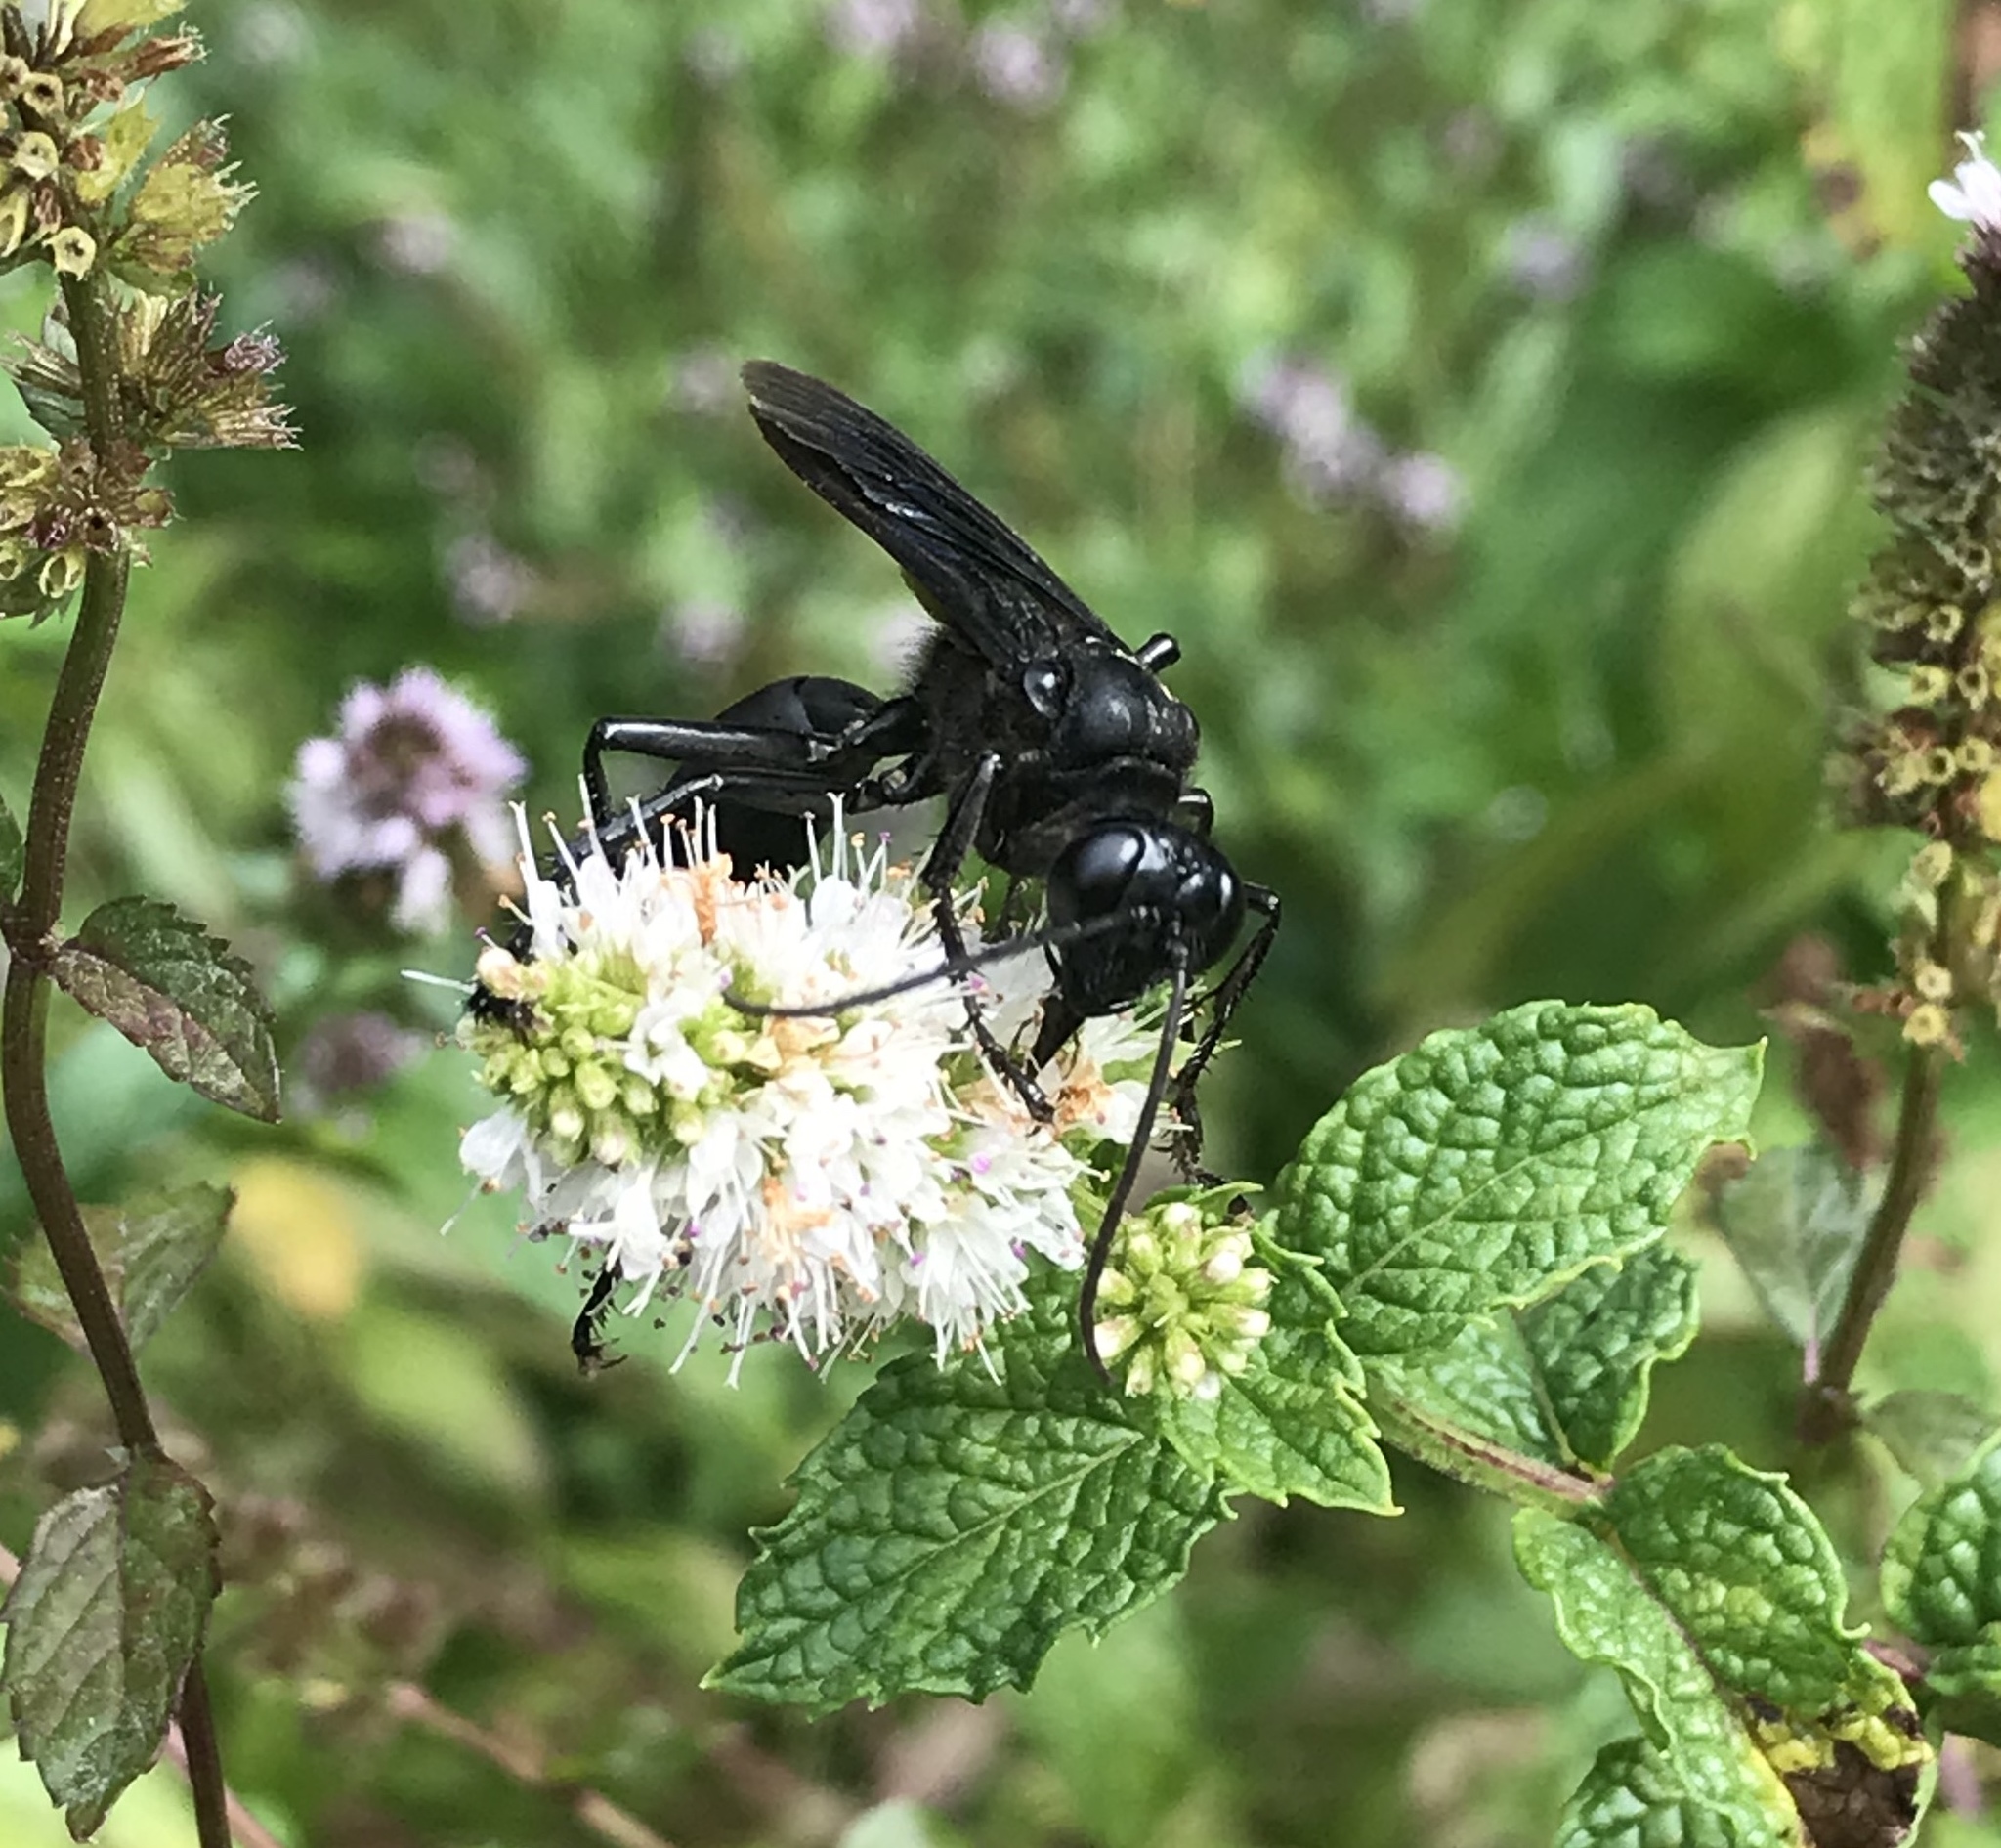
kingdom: Animalia
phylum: Arthropoda
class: Insecta
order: Hymenoptera
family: Sphecidae
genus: Sphex
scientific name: Sphex pensylvanicus
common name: Great black digger wasp
